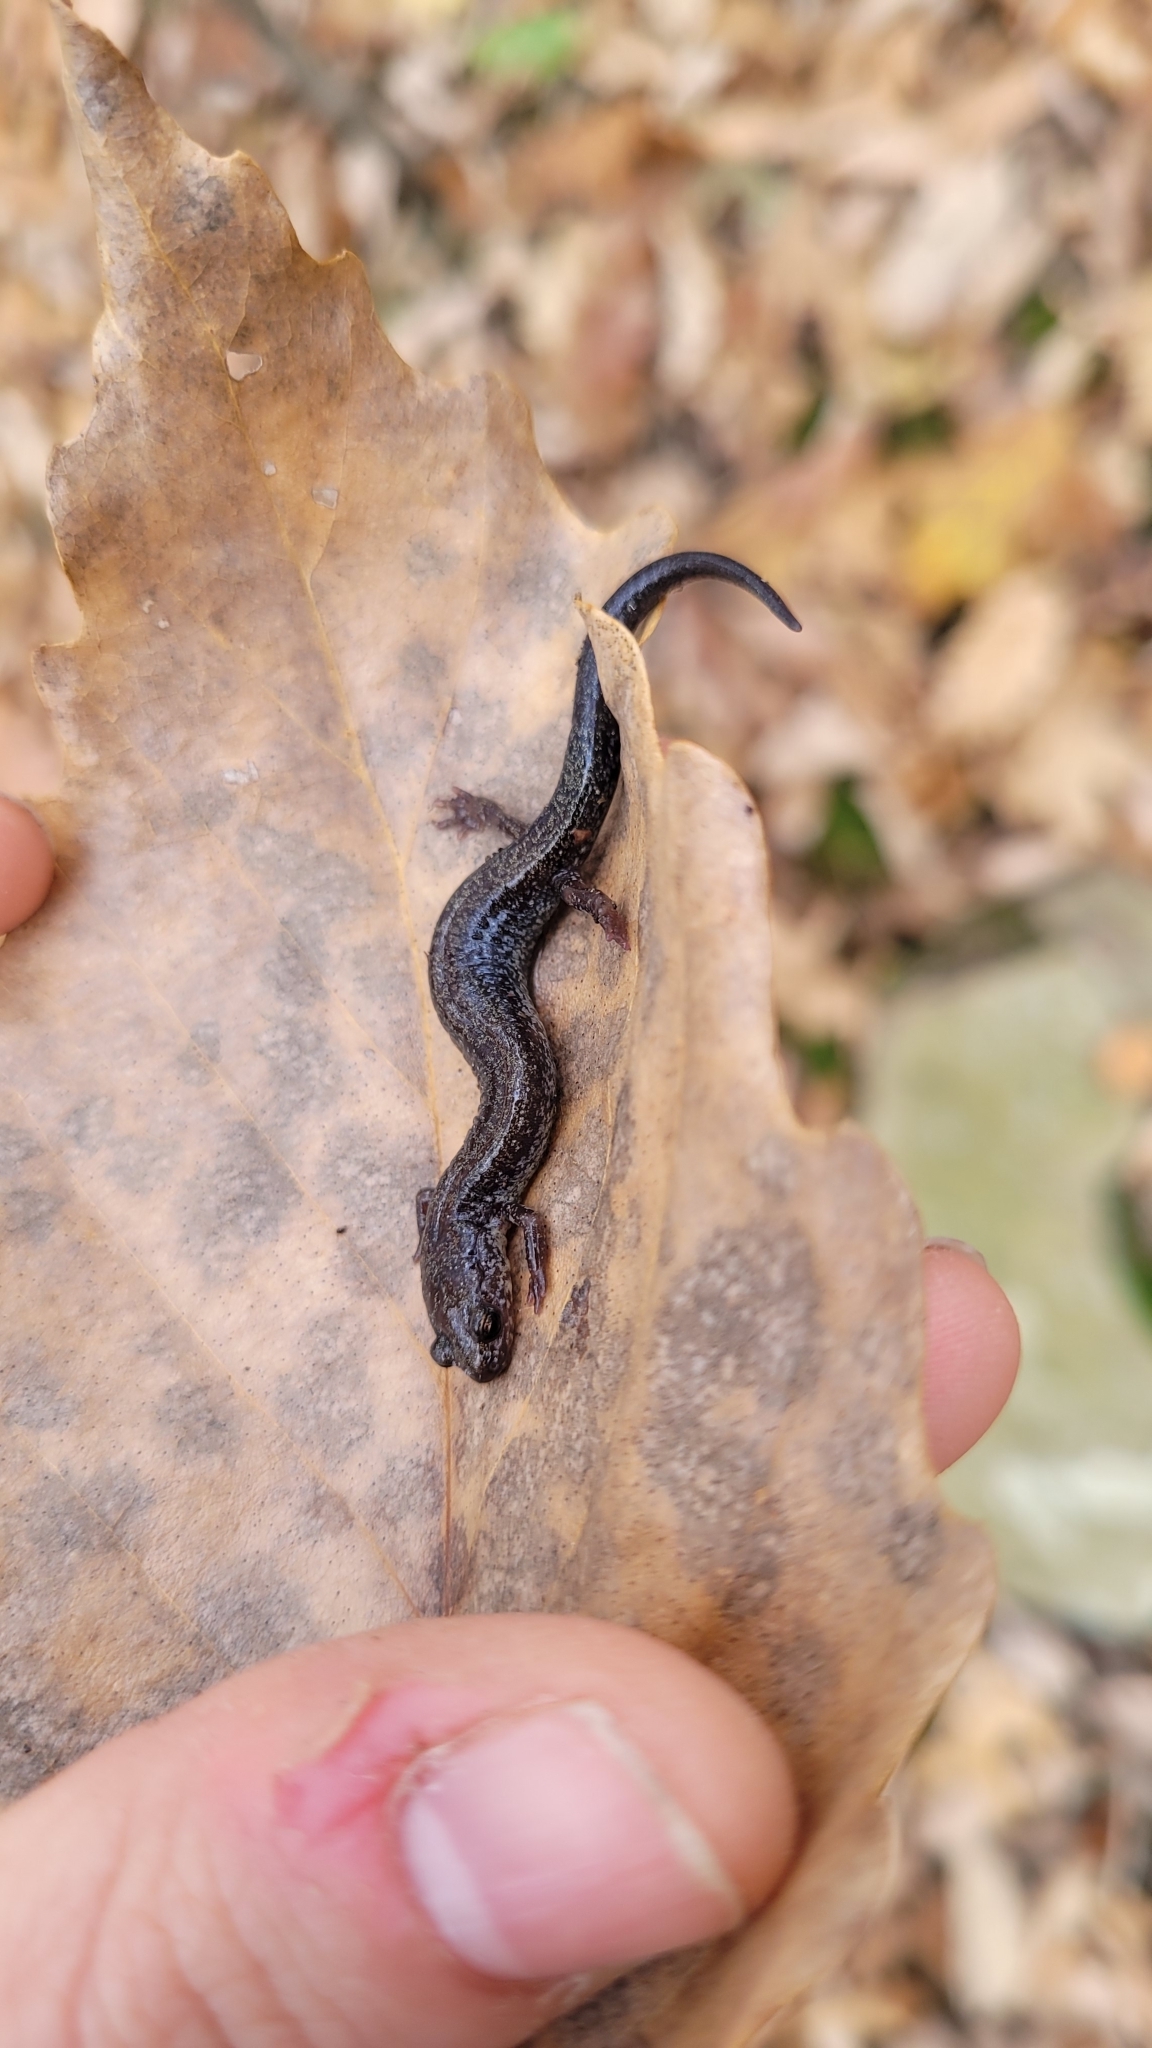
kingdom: Animalia
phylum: Chordata
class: Amphibia
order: Caudata
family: Plethodontidae
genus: Plethodon
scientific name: Plethodon cinereus
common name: Redback salamander
